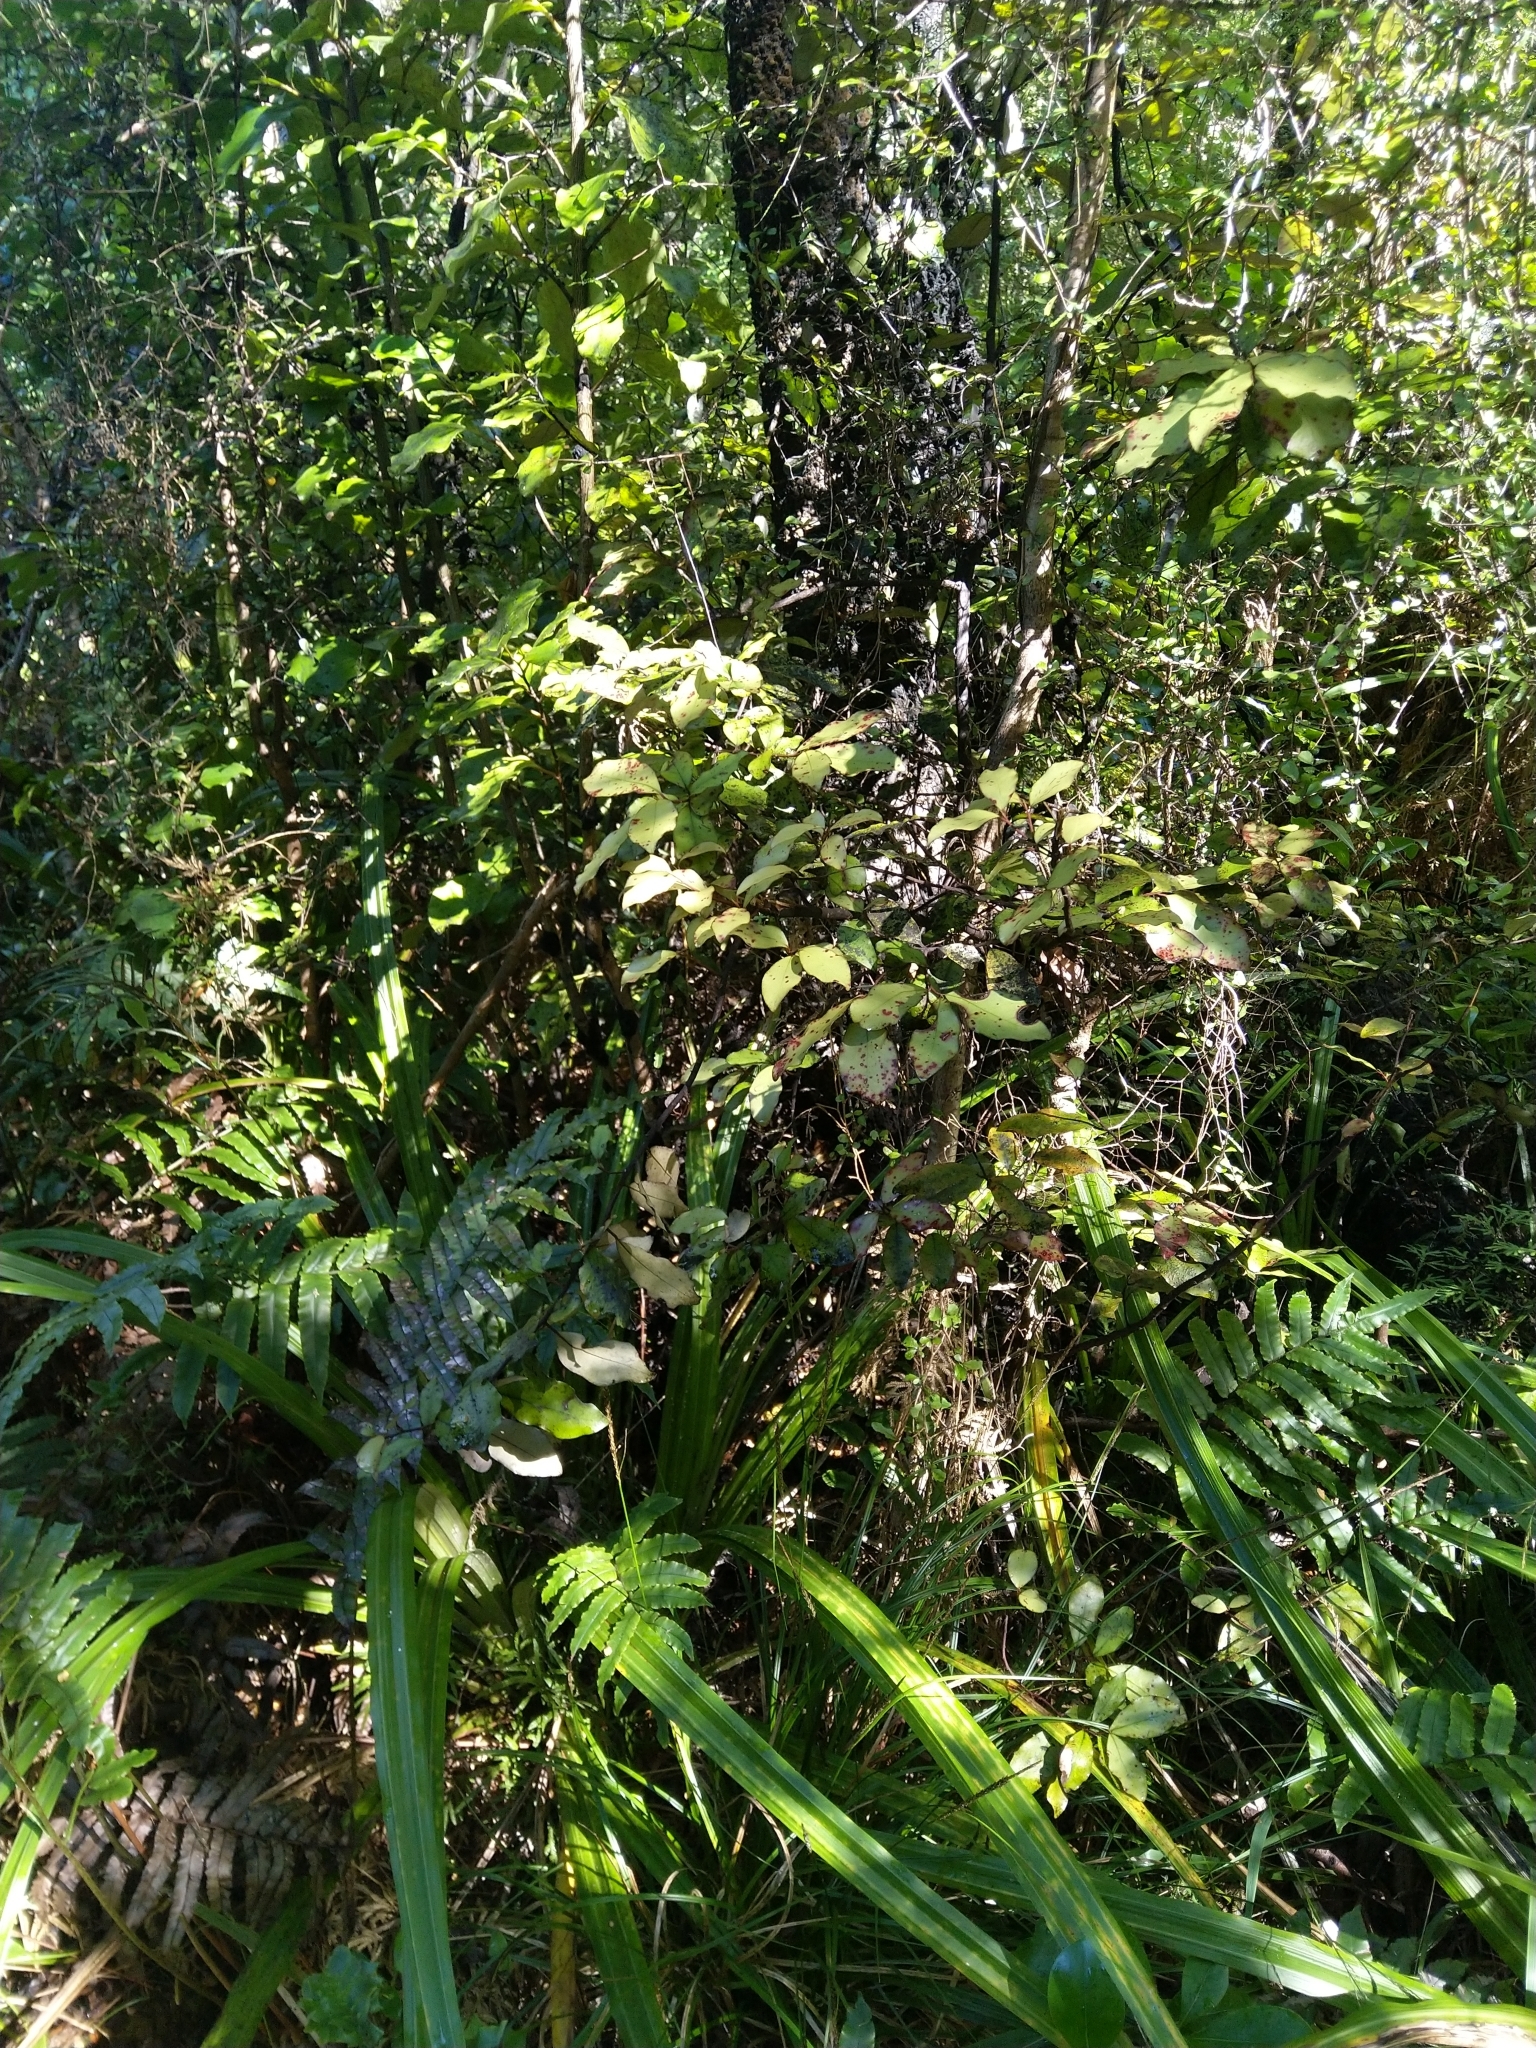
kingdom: Plantae
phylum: Tracheophyta
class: Magnoliopsida
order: Canellales
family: Winteraceae
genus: Pseudowintera
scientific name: Pseudowintera colorata
